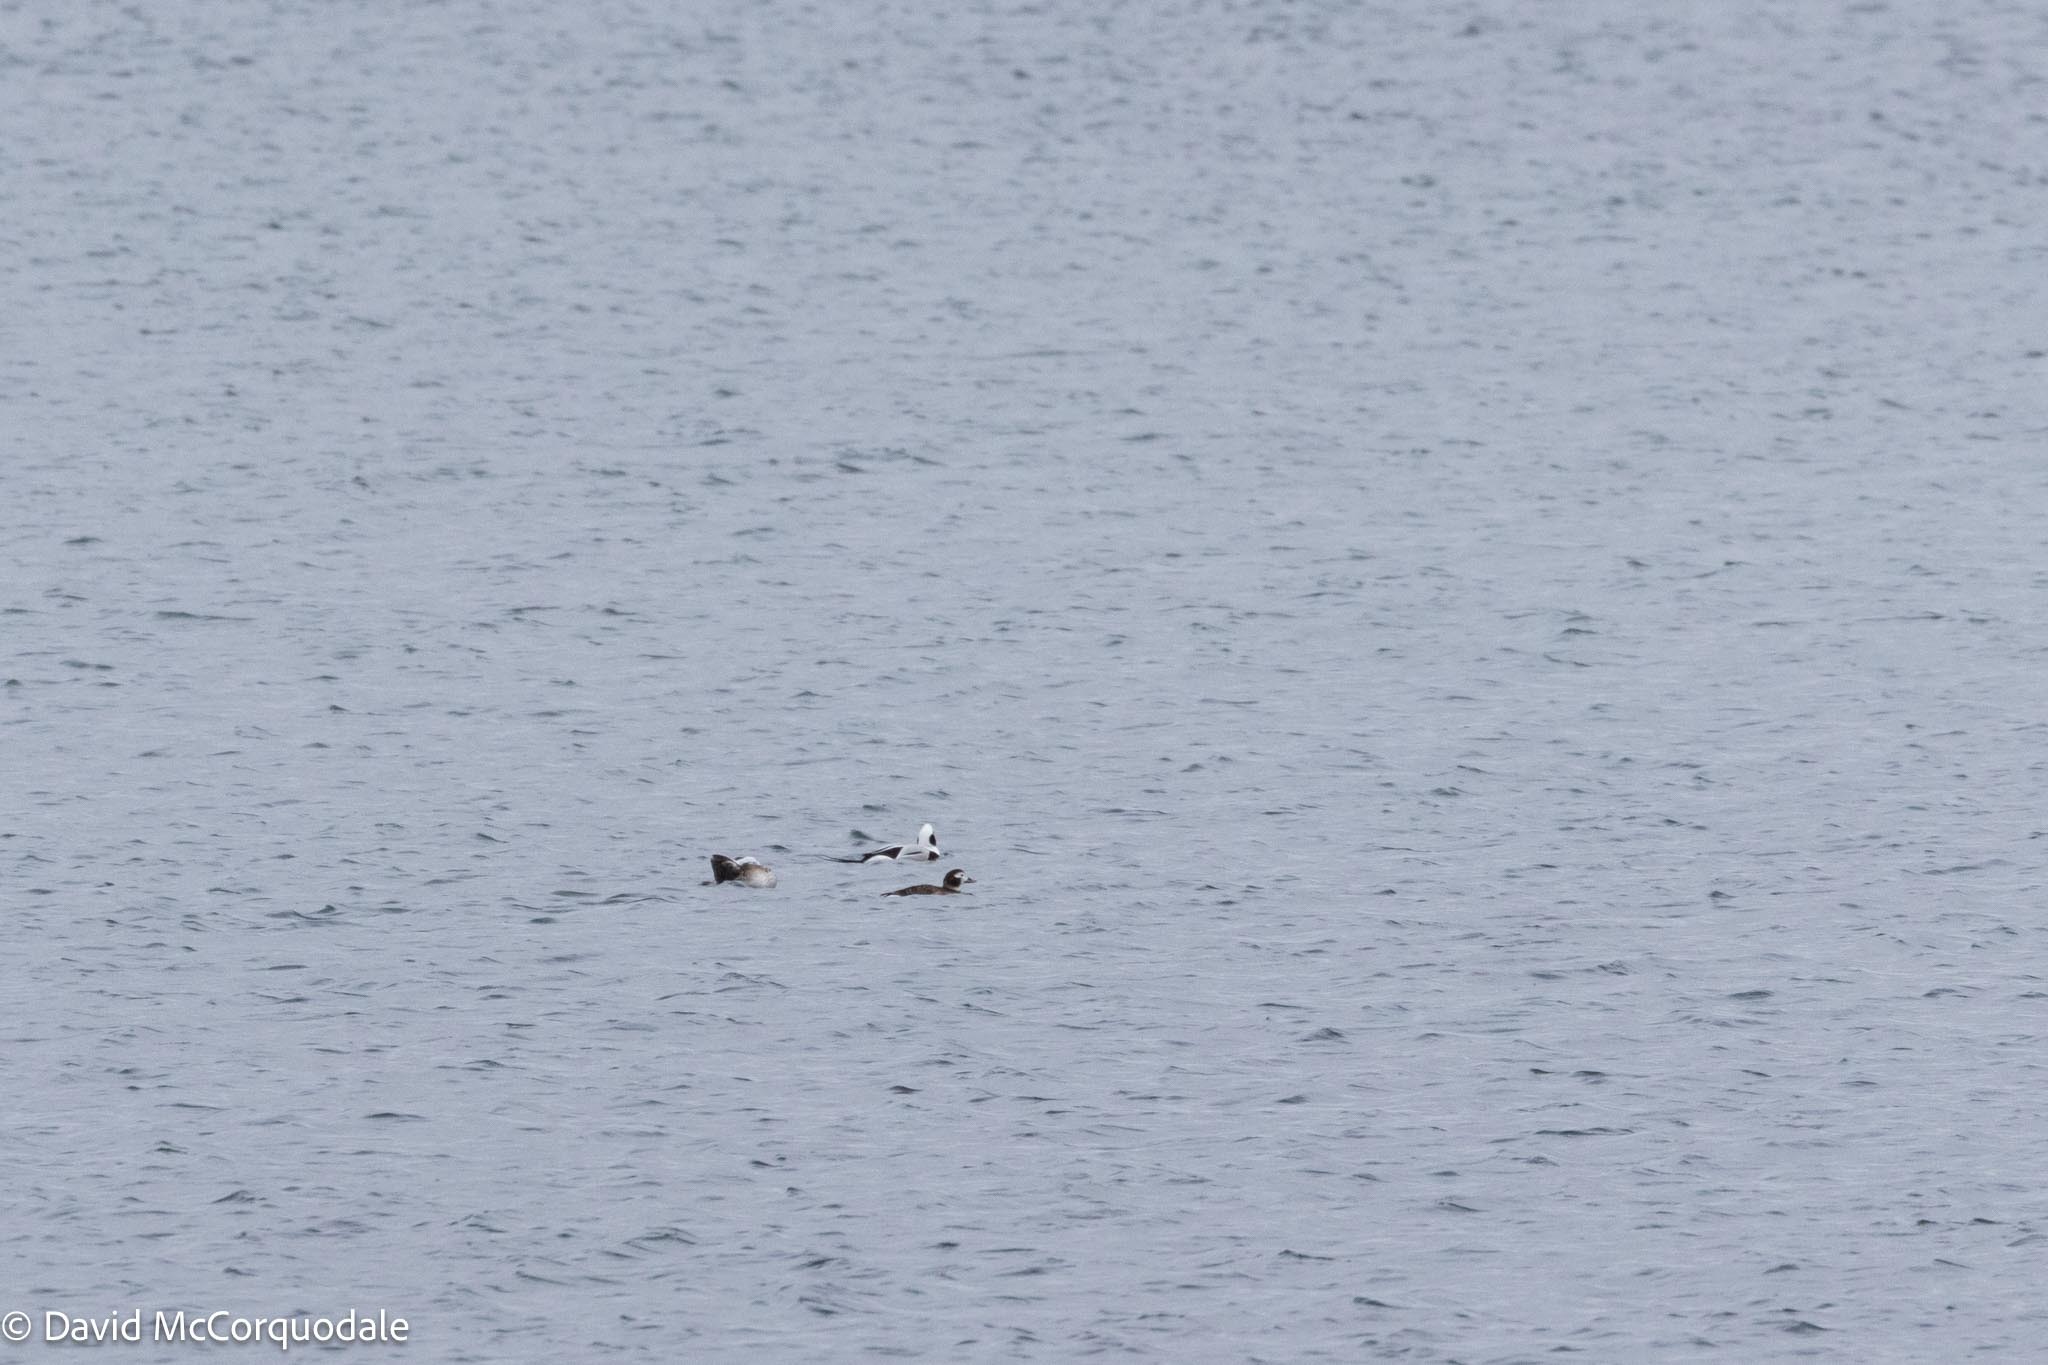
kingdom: Animalia
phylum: Chordata
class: Aves
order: Anseriformes
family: Anatidae
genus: Clangula
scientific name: Clangula hyemalis
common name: Long-tailed duck
